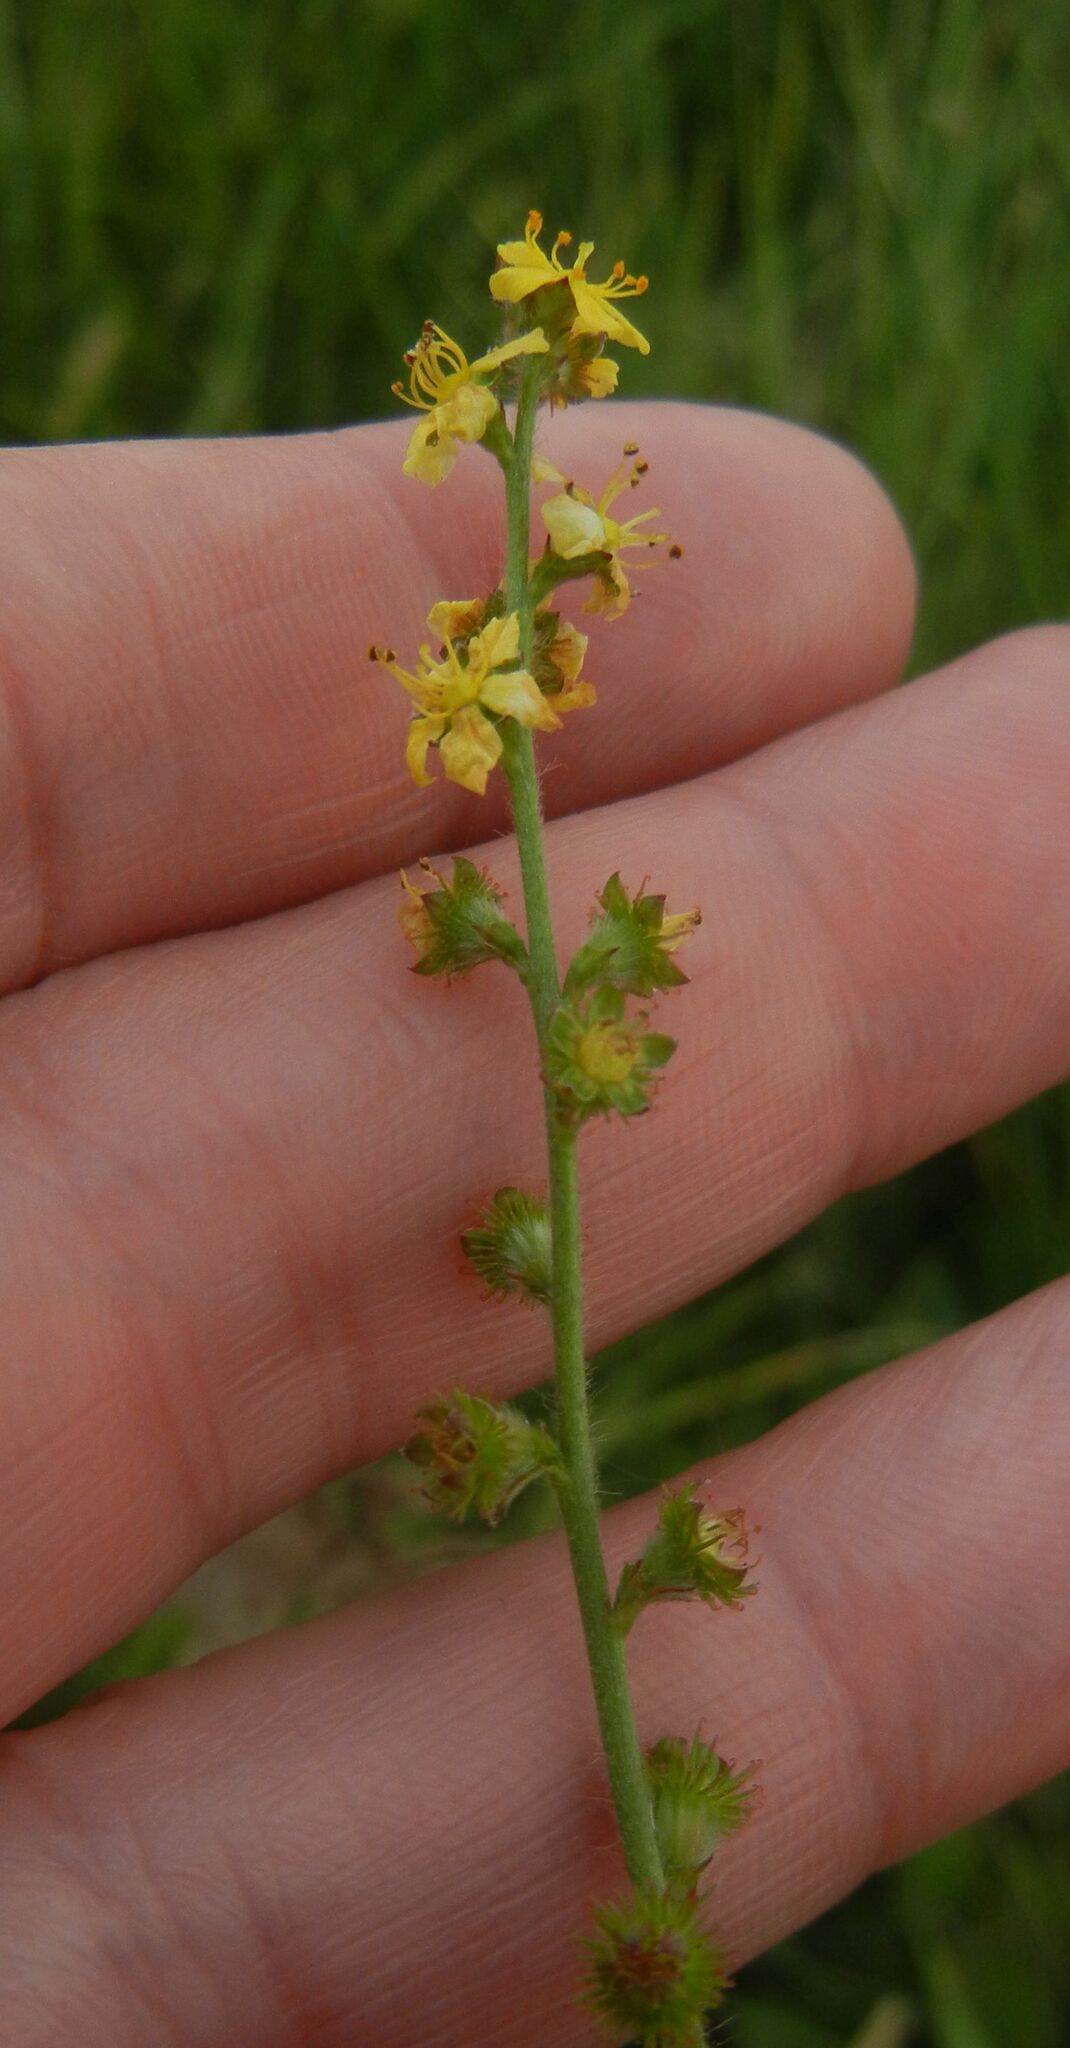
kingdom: Plantae
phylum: Tracheophyta
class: Magnoliopsida
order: Rosales
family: Rosaceae
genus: Agrimonia
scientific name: Agrimonia eupatoria
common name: Agrimony
